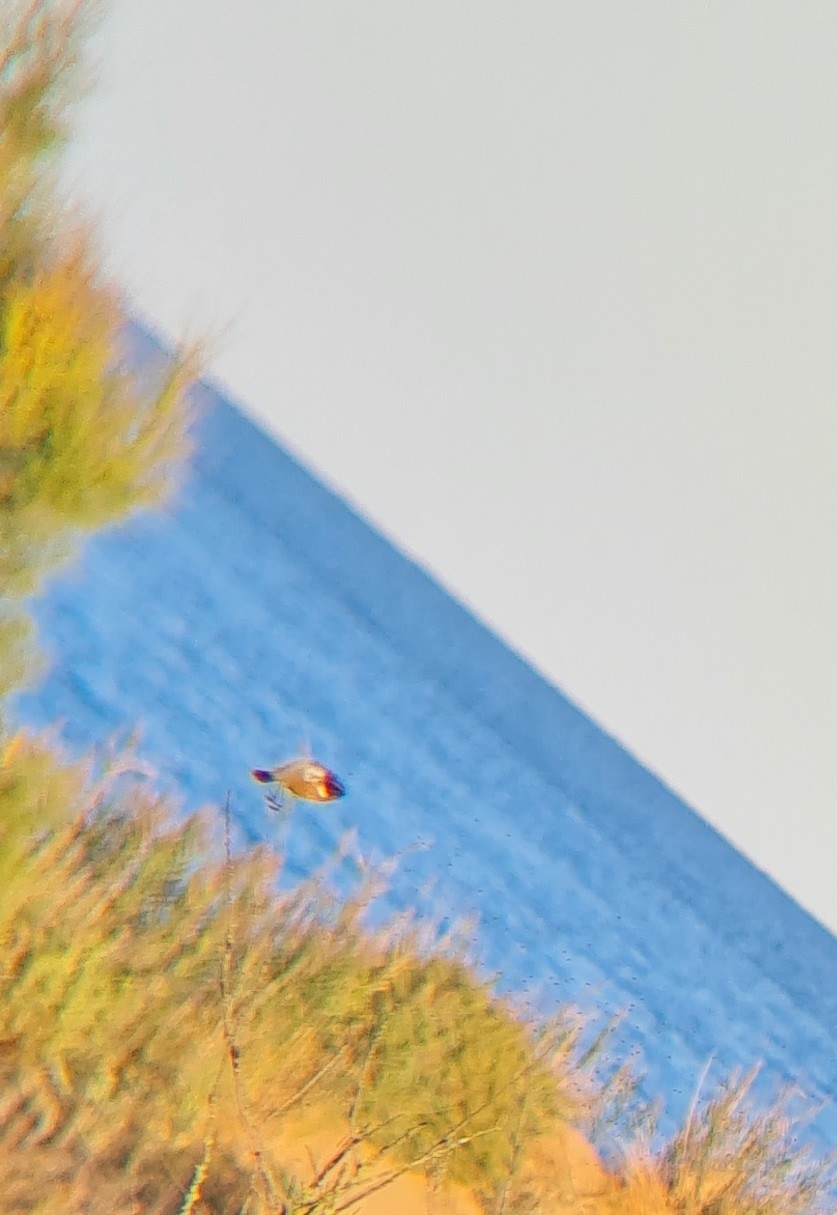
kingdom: Animalia
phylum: Chordata
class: Aves
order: Passeriformes
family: Muscicapidae
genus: Saxicola
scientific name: Saxicola rubicola
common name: European stonechat
